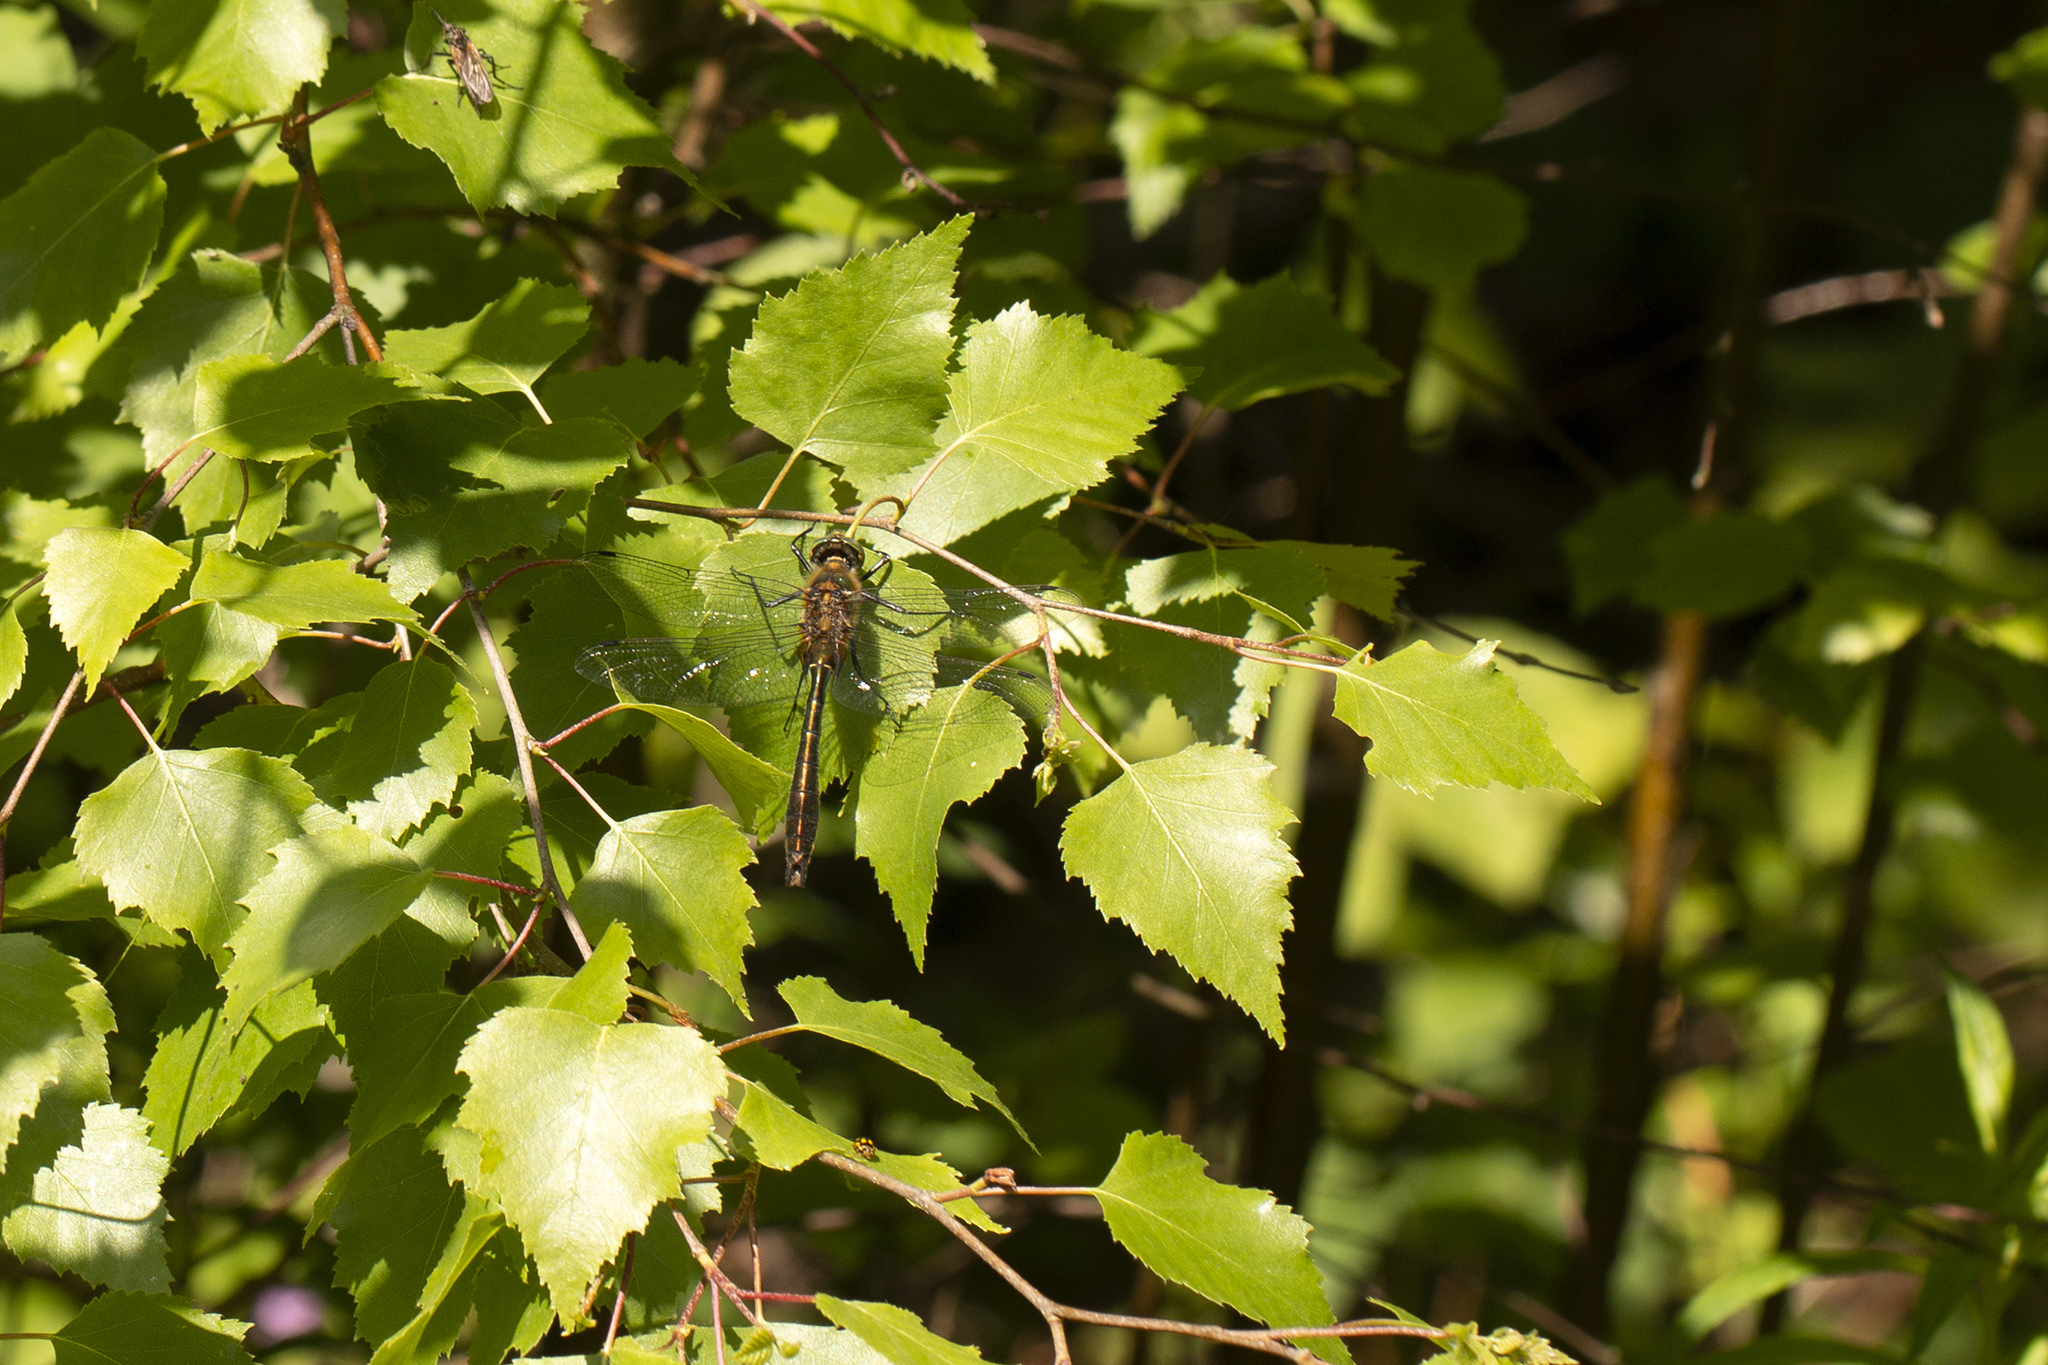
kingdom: Animalia
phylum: Arthropoda
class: Insecta
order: Odonata
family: Corduliidae
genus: Cordulia
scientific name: Cordulia aenea
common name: Downy emerald
